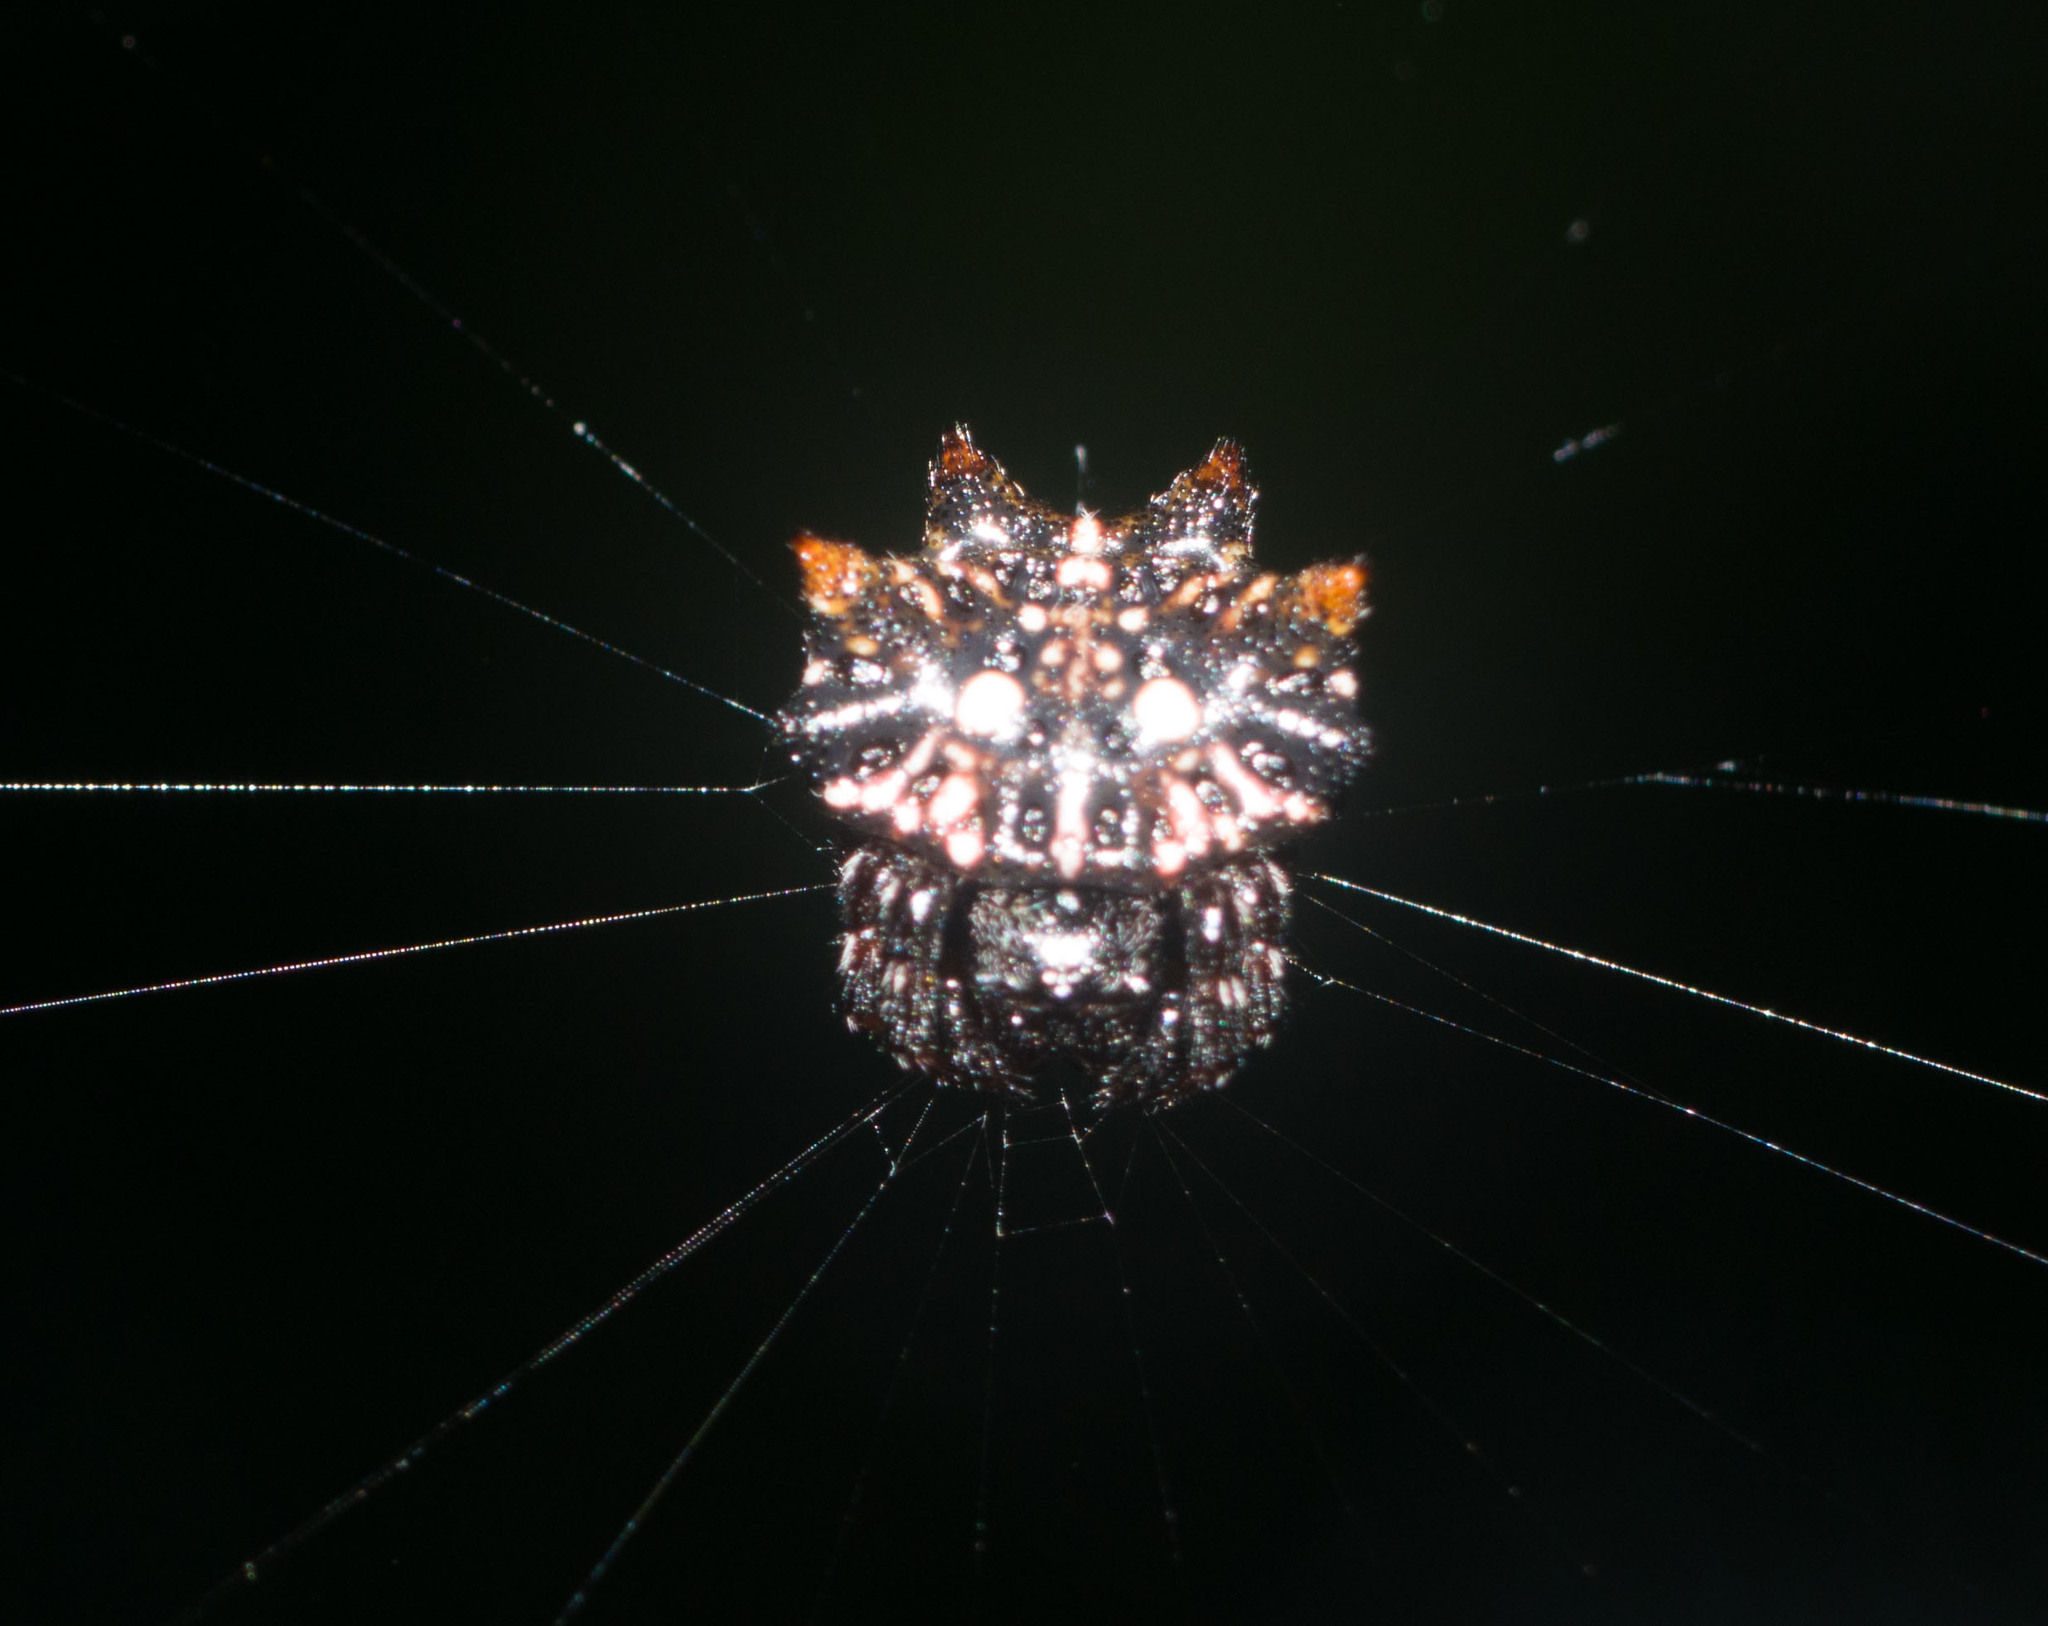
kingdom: Animalia
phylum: Arthropoda
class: Arachnida
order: Araneae
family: Araneidae
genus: Thelacantha
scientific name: Thelacantha brevispina
